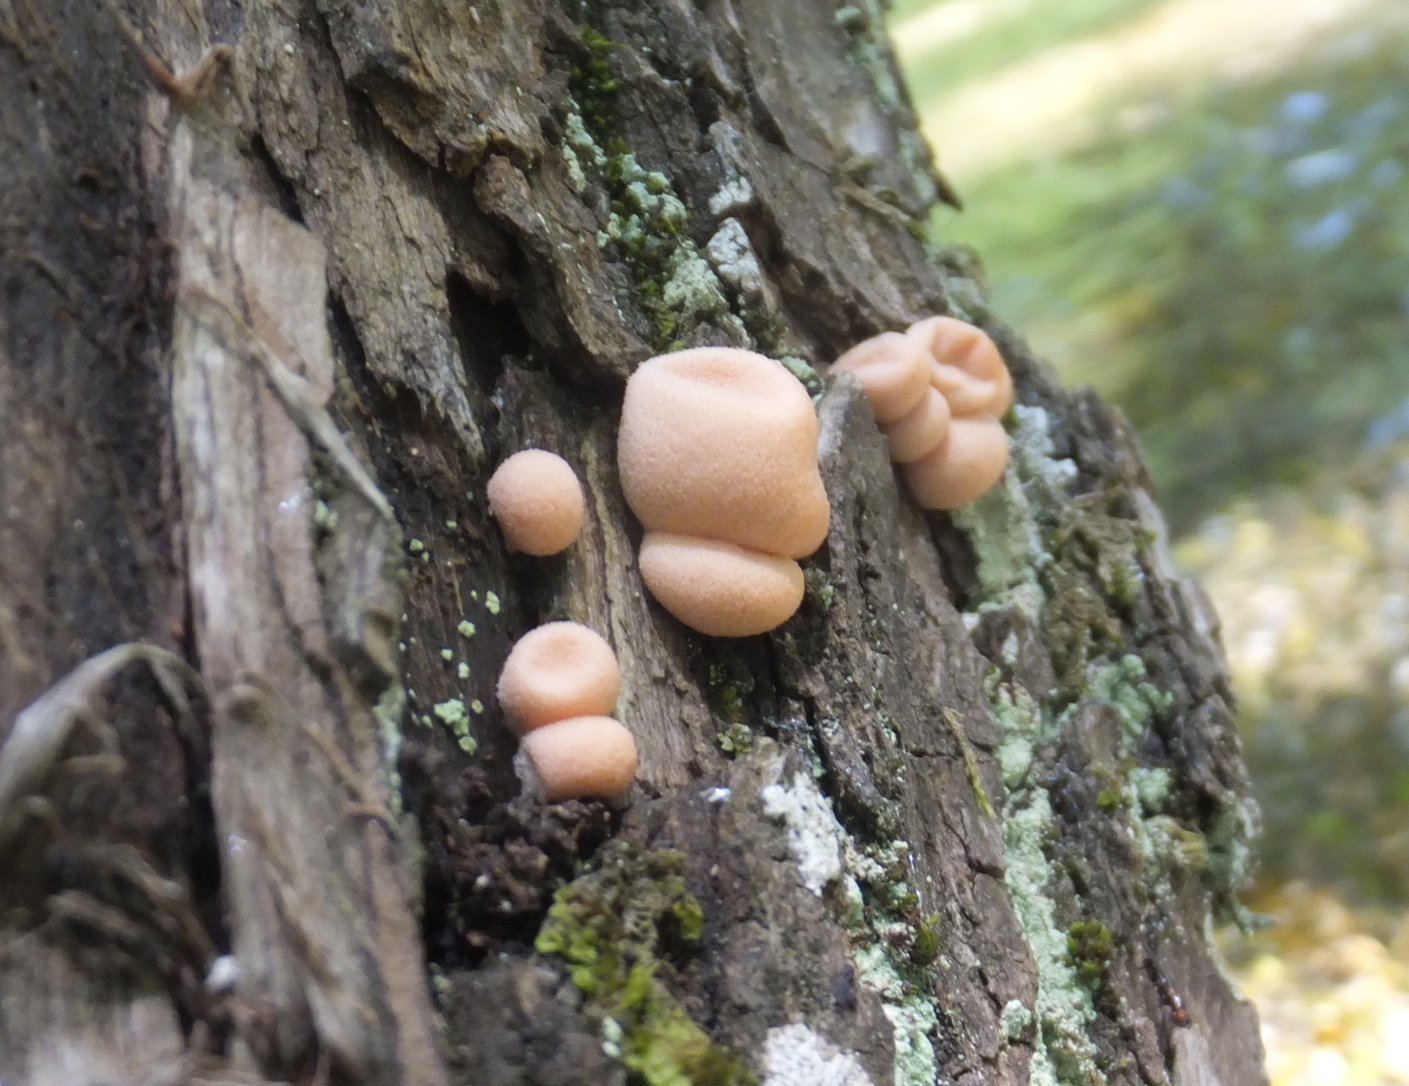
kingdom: Protozoa
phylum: Mycetozoa
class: Myxomycetes
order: Cribrariales
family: Tubiferaceae
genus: Lycogala
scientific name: Lycogala epidendrum
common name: Wolf's milk
